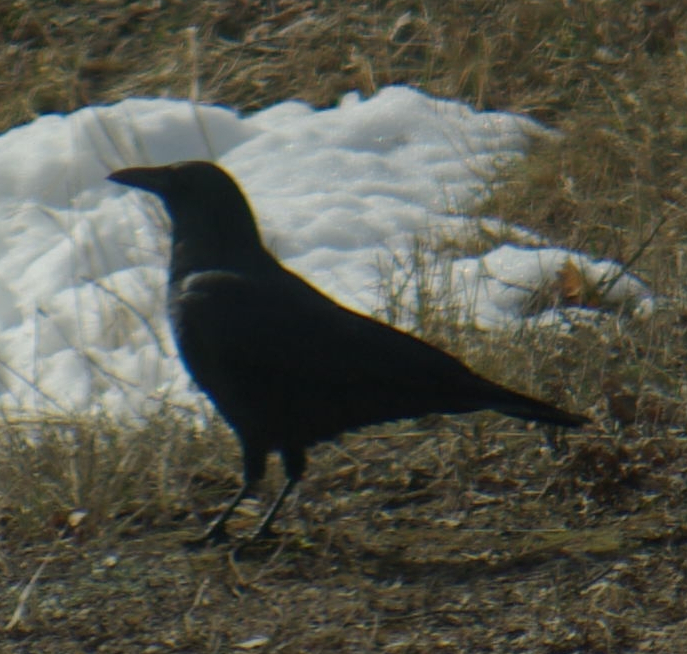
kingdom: Animalia
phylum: Chordata
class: Aves
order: Passeriformes
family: Corvidae
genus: Corvus
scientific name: Corvus brachyrhynchos
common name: American crow
